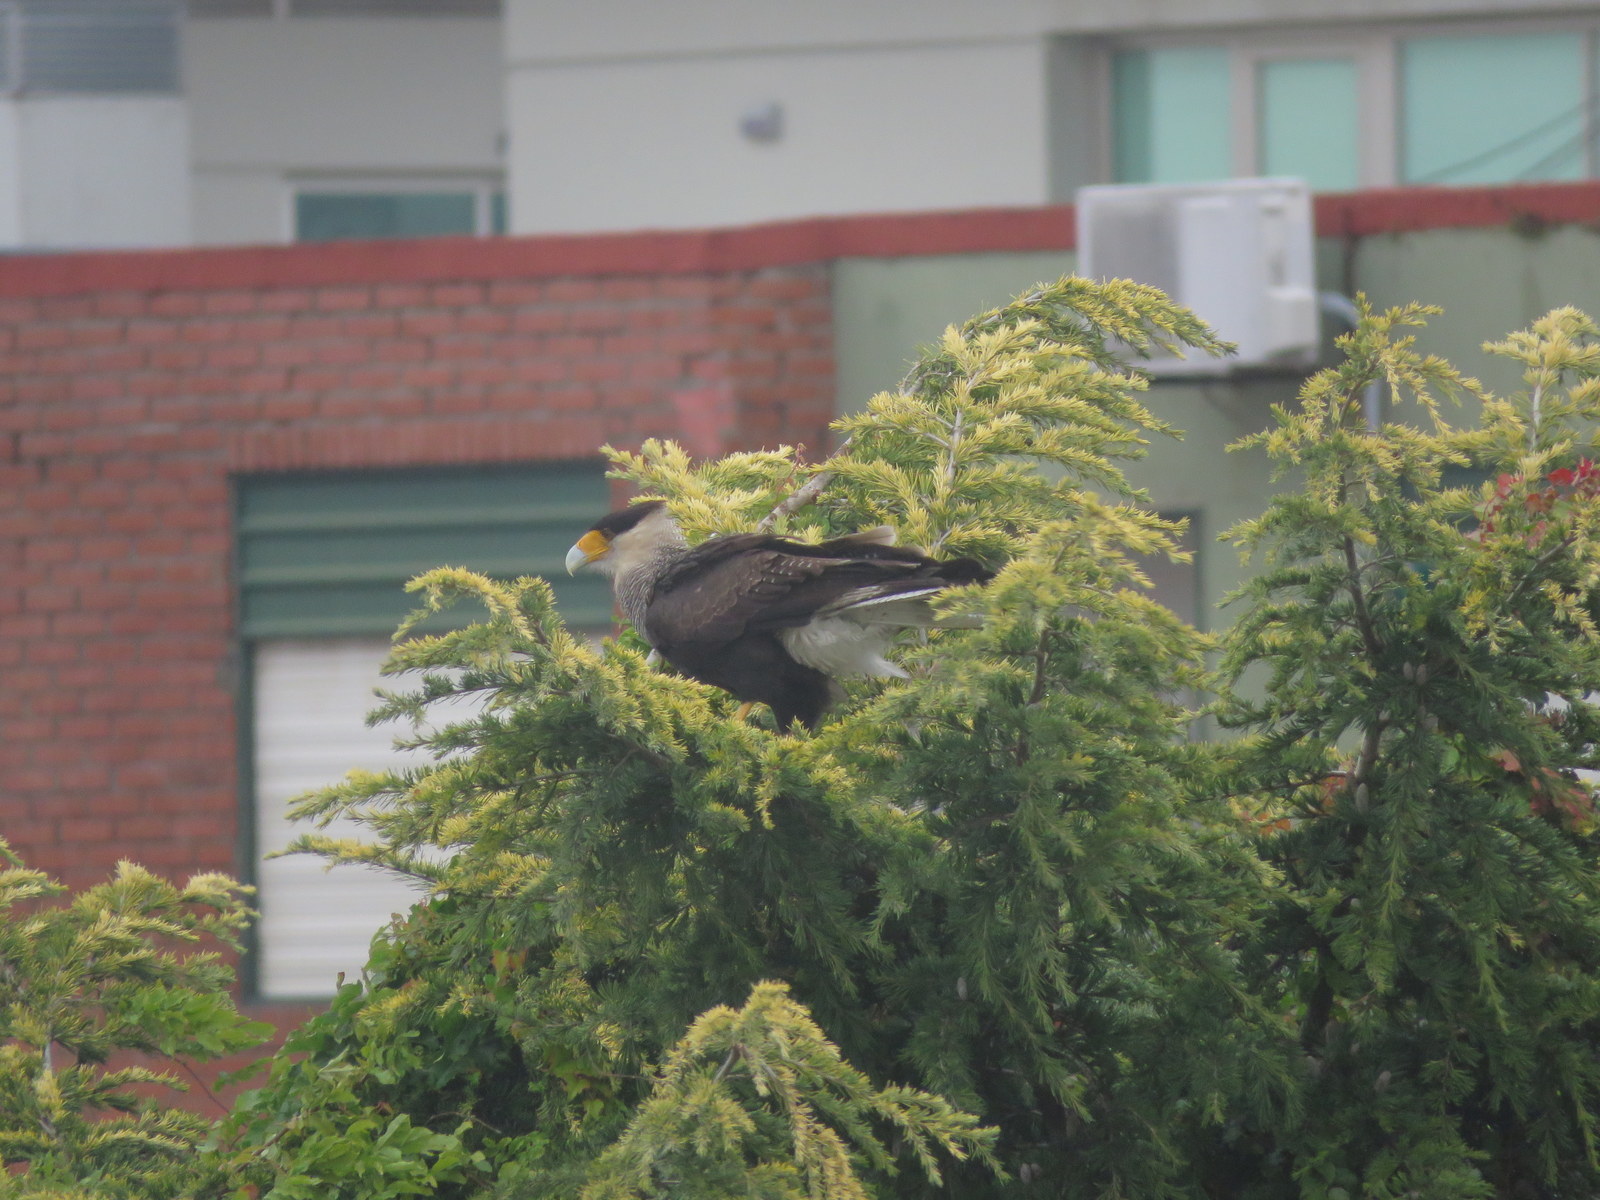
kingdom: Animalia
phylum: Chordata
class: Aves
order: Falconiformes
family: Falconidae
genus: Caracara
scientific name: Caracara plancus
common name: Southern caracara
